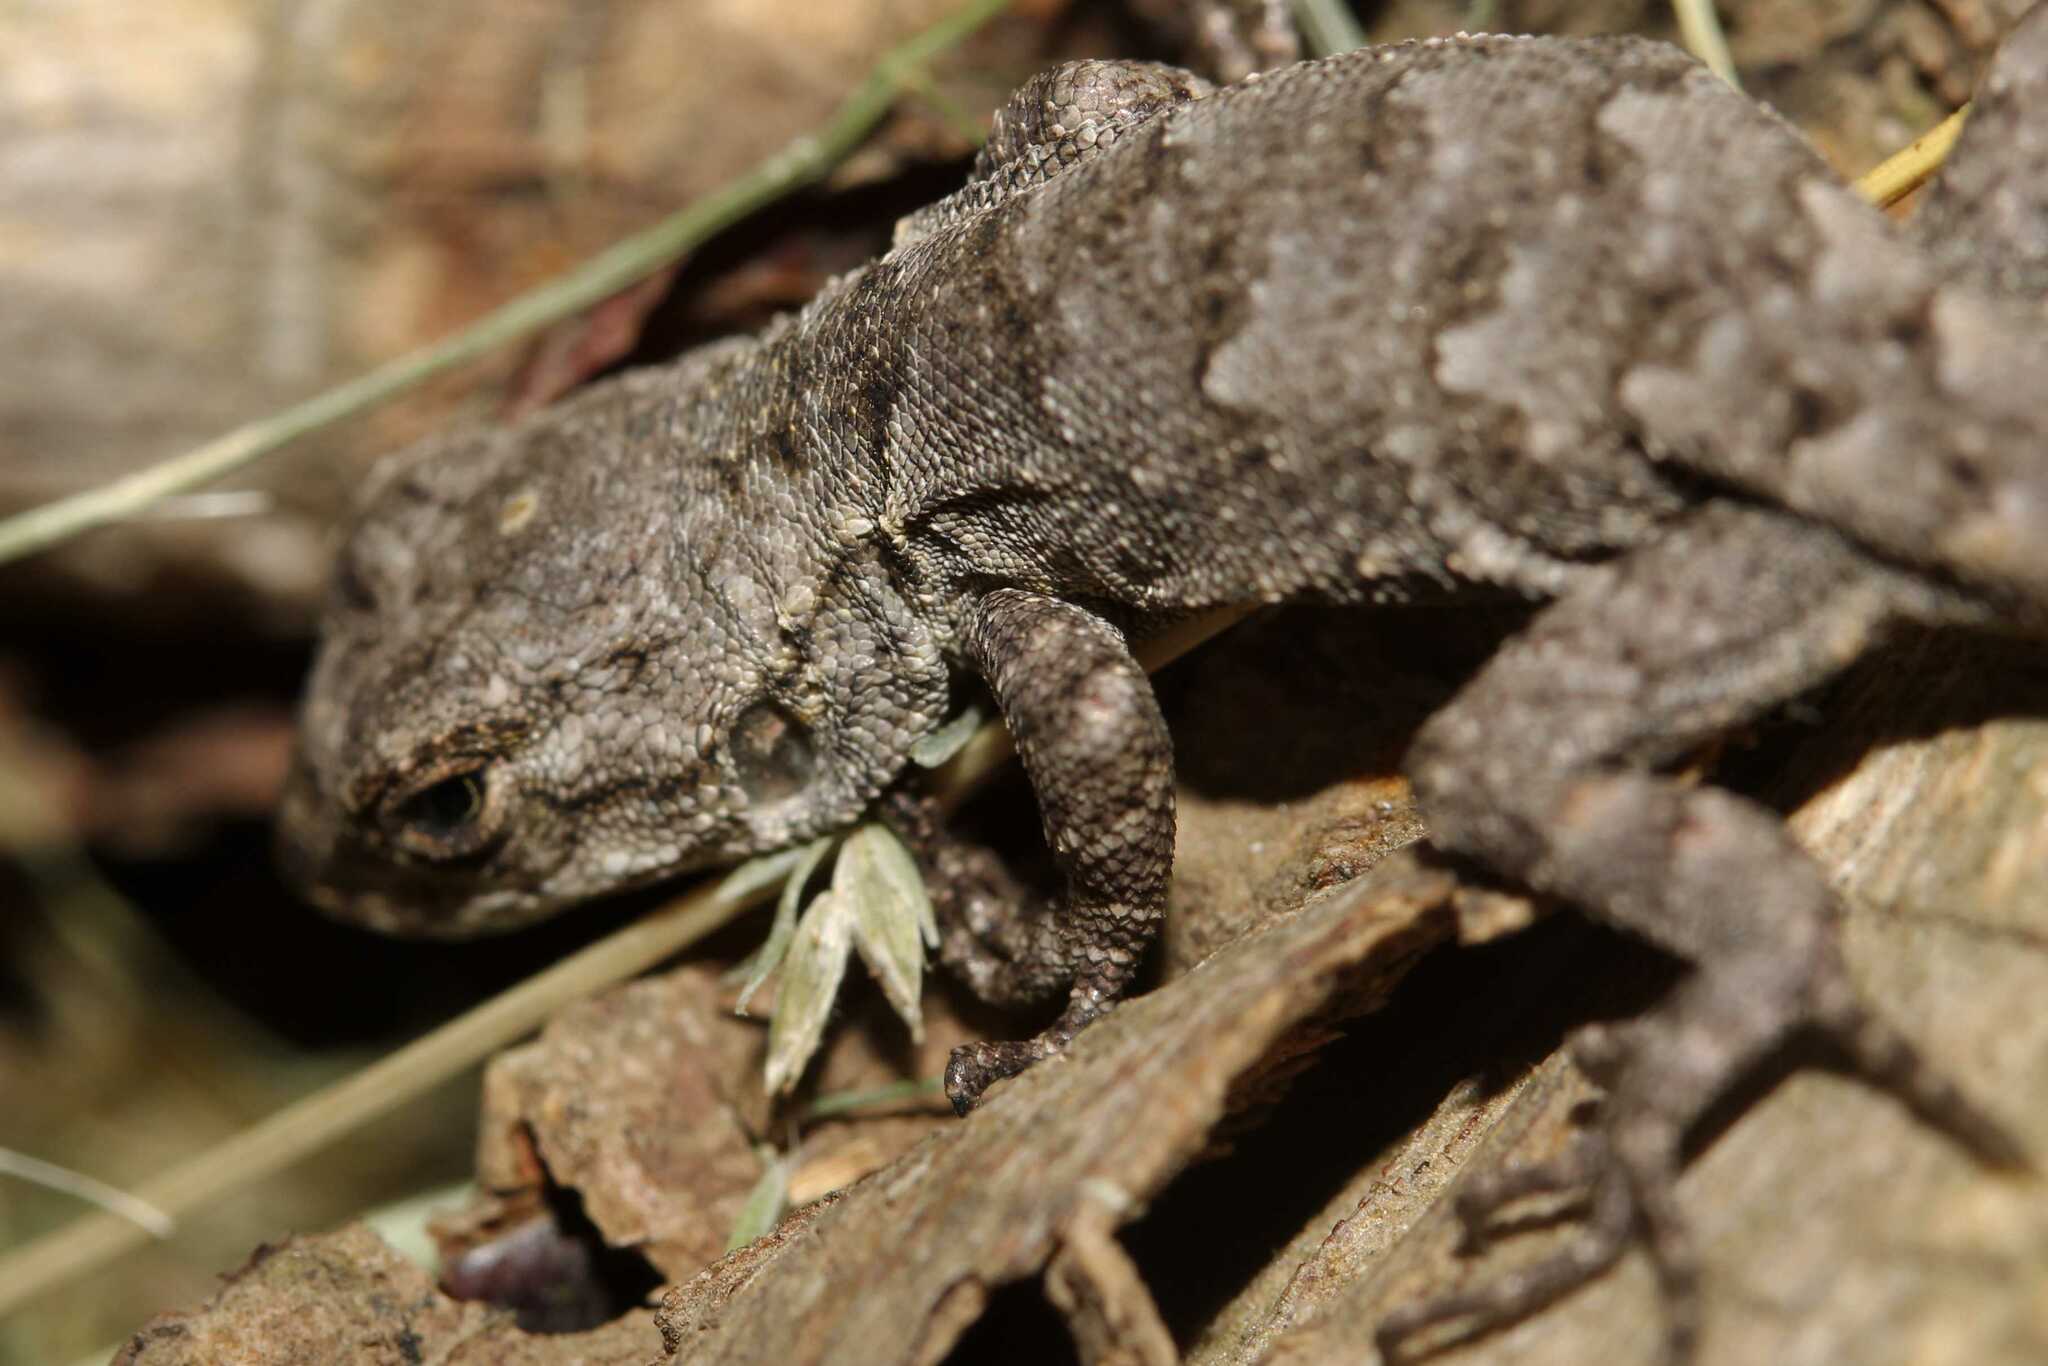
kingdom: Animalia
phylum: Chordata
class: Squamata
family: Phrynosomatidae
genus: Sceloporus
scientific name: Sceloporus grammicus
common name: Mesquite lizard
